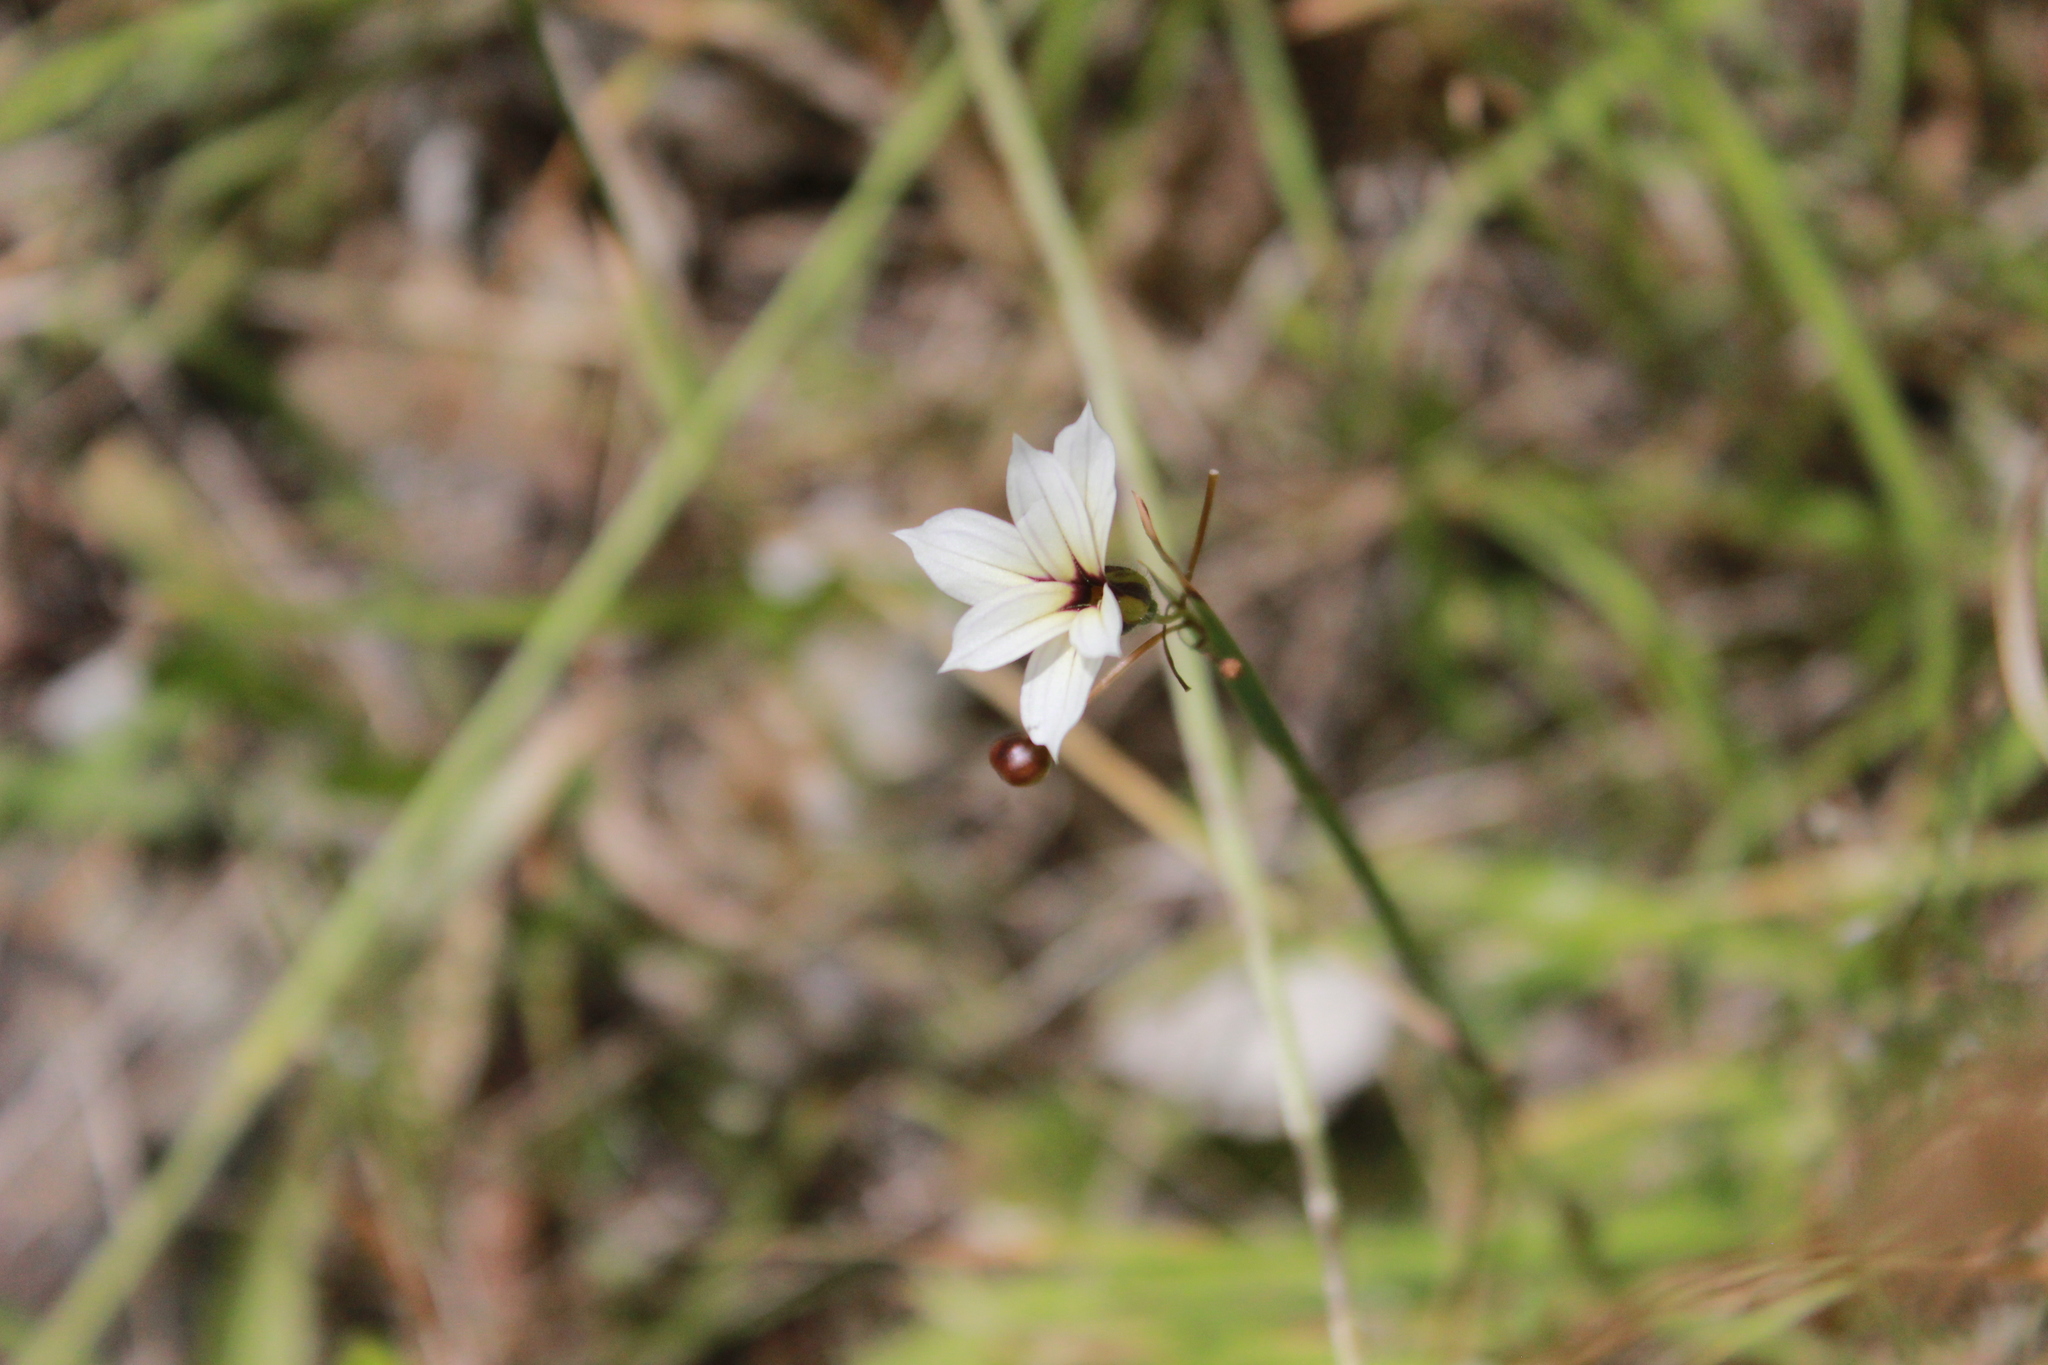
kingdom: Plantae
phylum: Tracheophyta
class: Liliopsida
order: Asparagales
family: Iridaceae
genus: Sisyrinchium
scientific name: Sisyrinchium micranthum
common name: Bermuda pigroot
